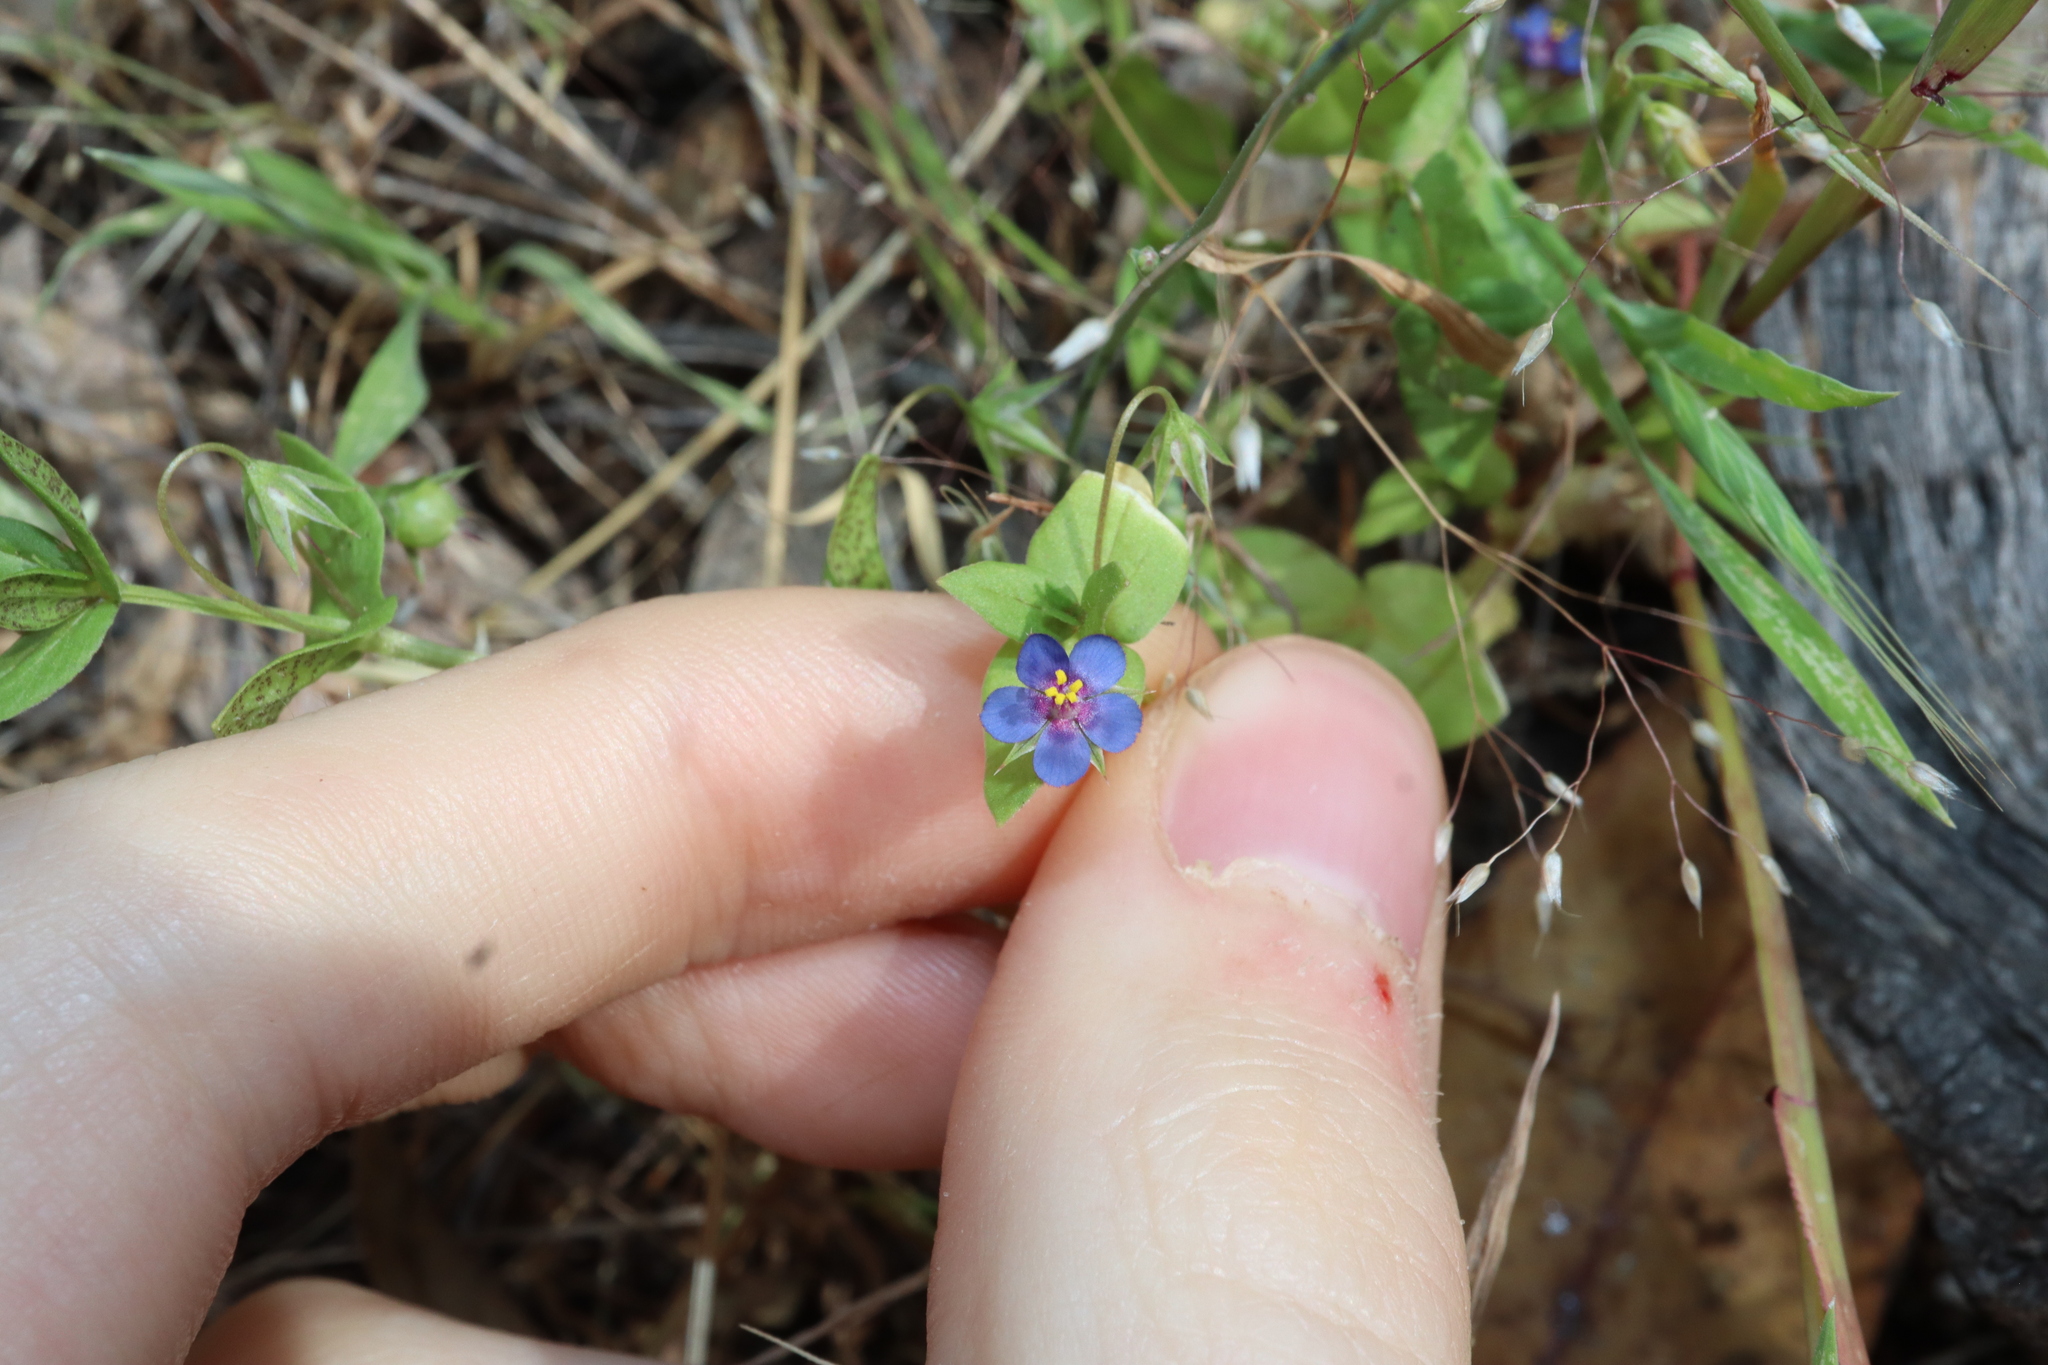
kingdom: Plantae
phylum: Tracheophyta
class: Magnoliopsida
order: Ericales
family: Primulaceae
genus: Lysimachia
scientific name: Lysimachia loeflingii
